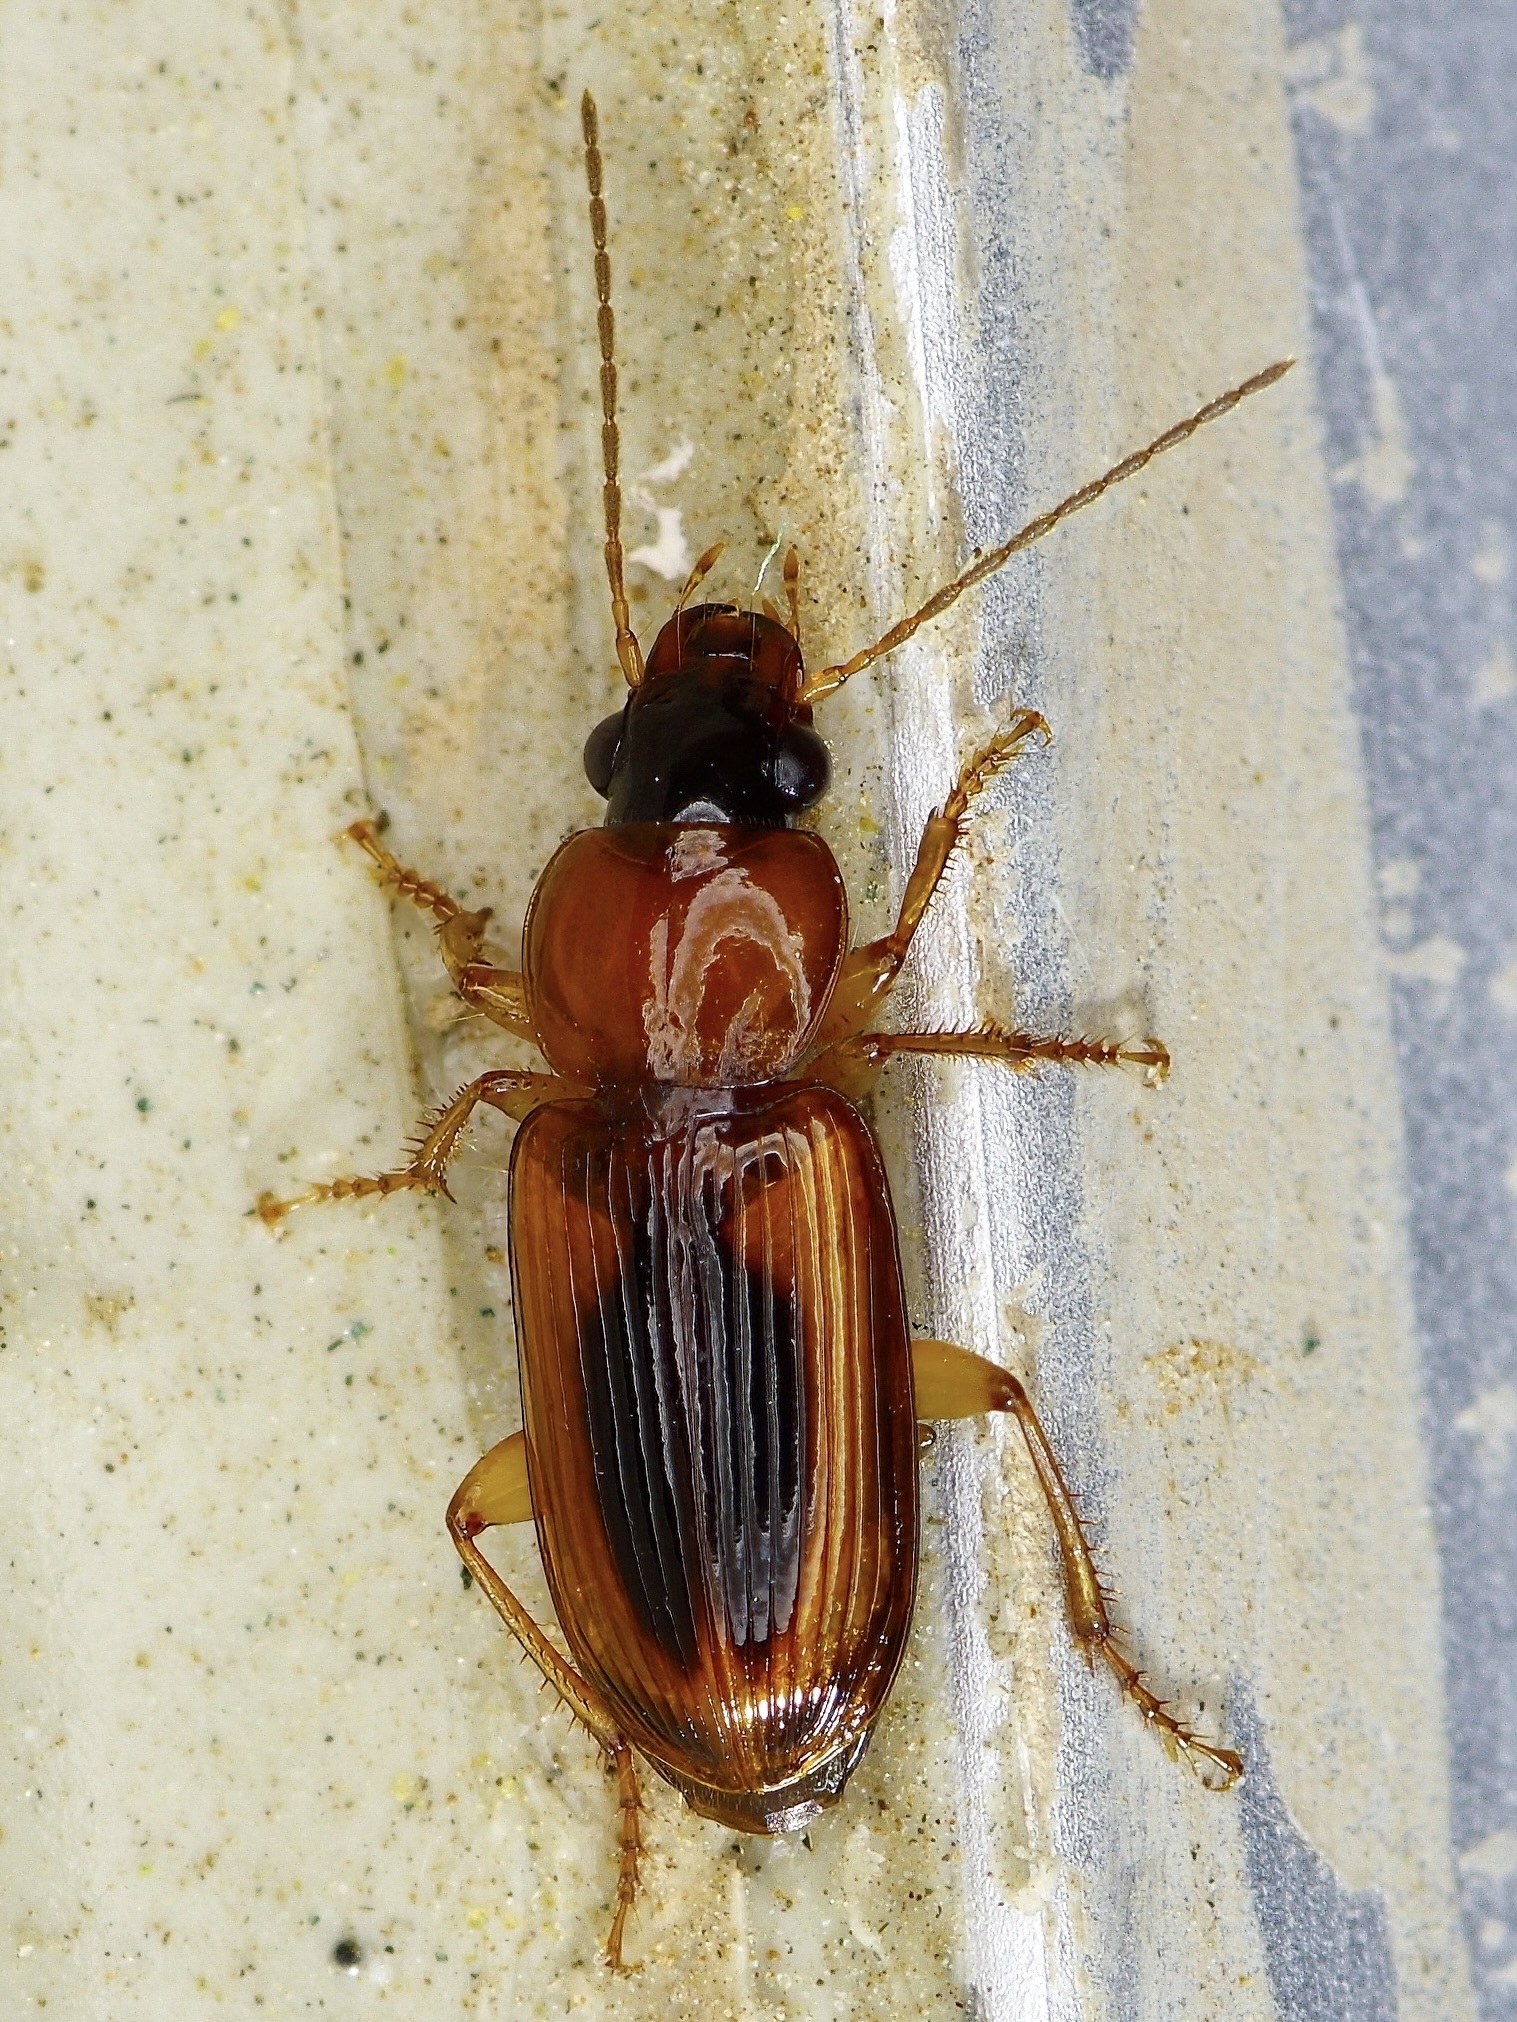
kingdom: Animalia
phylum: Arthropoda
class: Insecta
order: Coleoptera
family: Carabidae
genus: Stenolophus
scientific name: Stenolophus dissimilis
